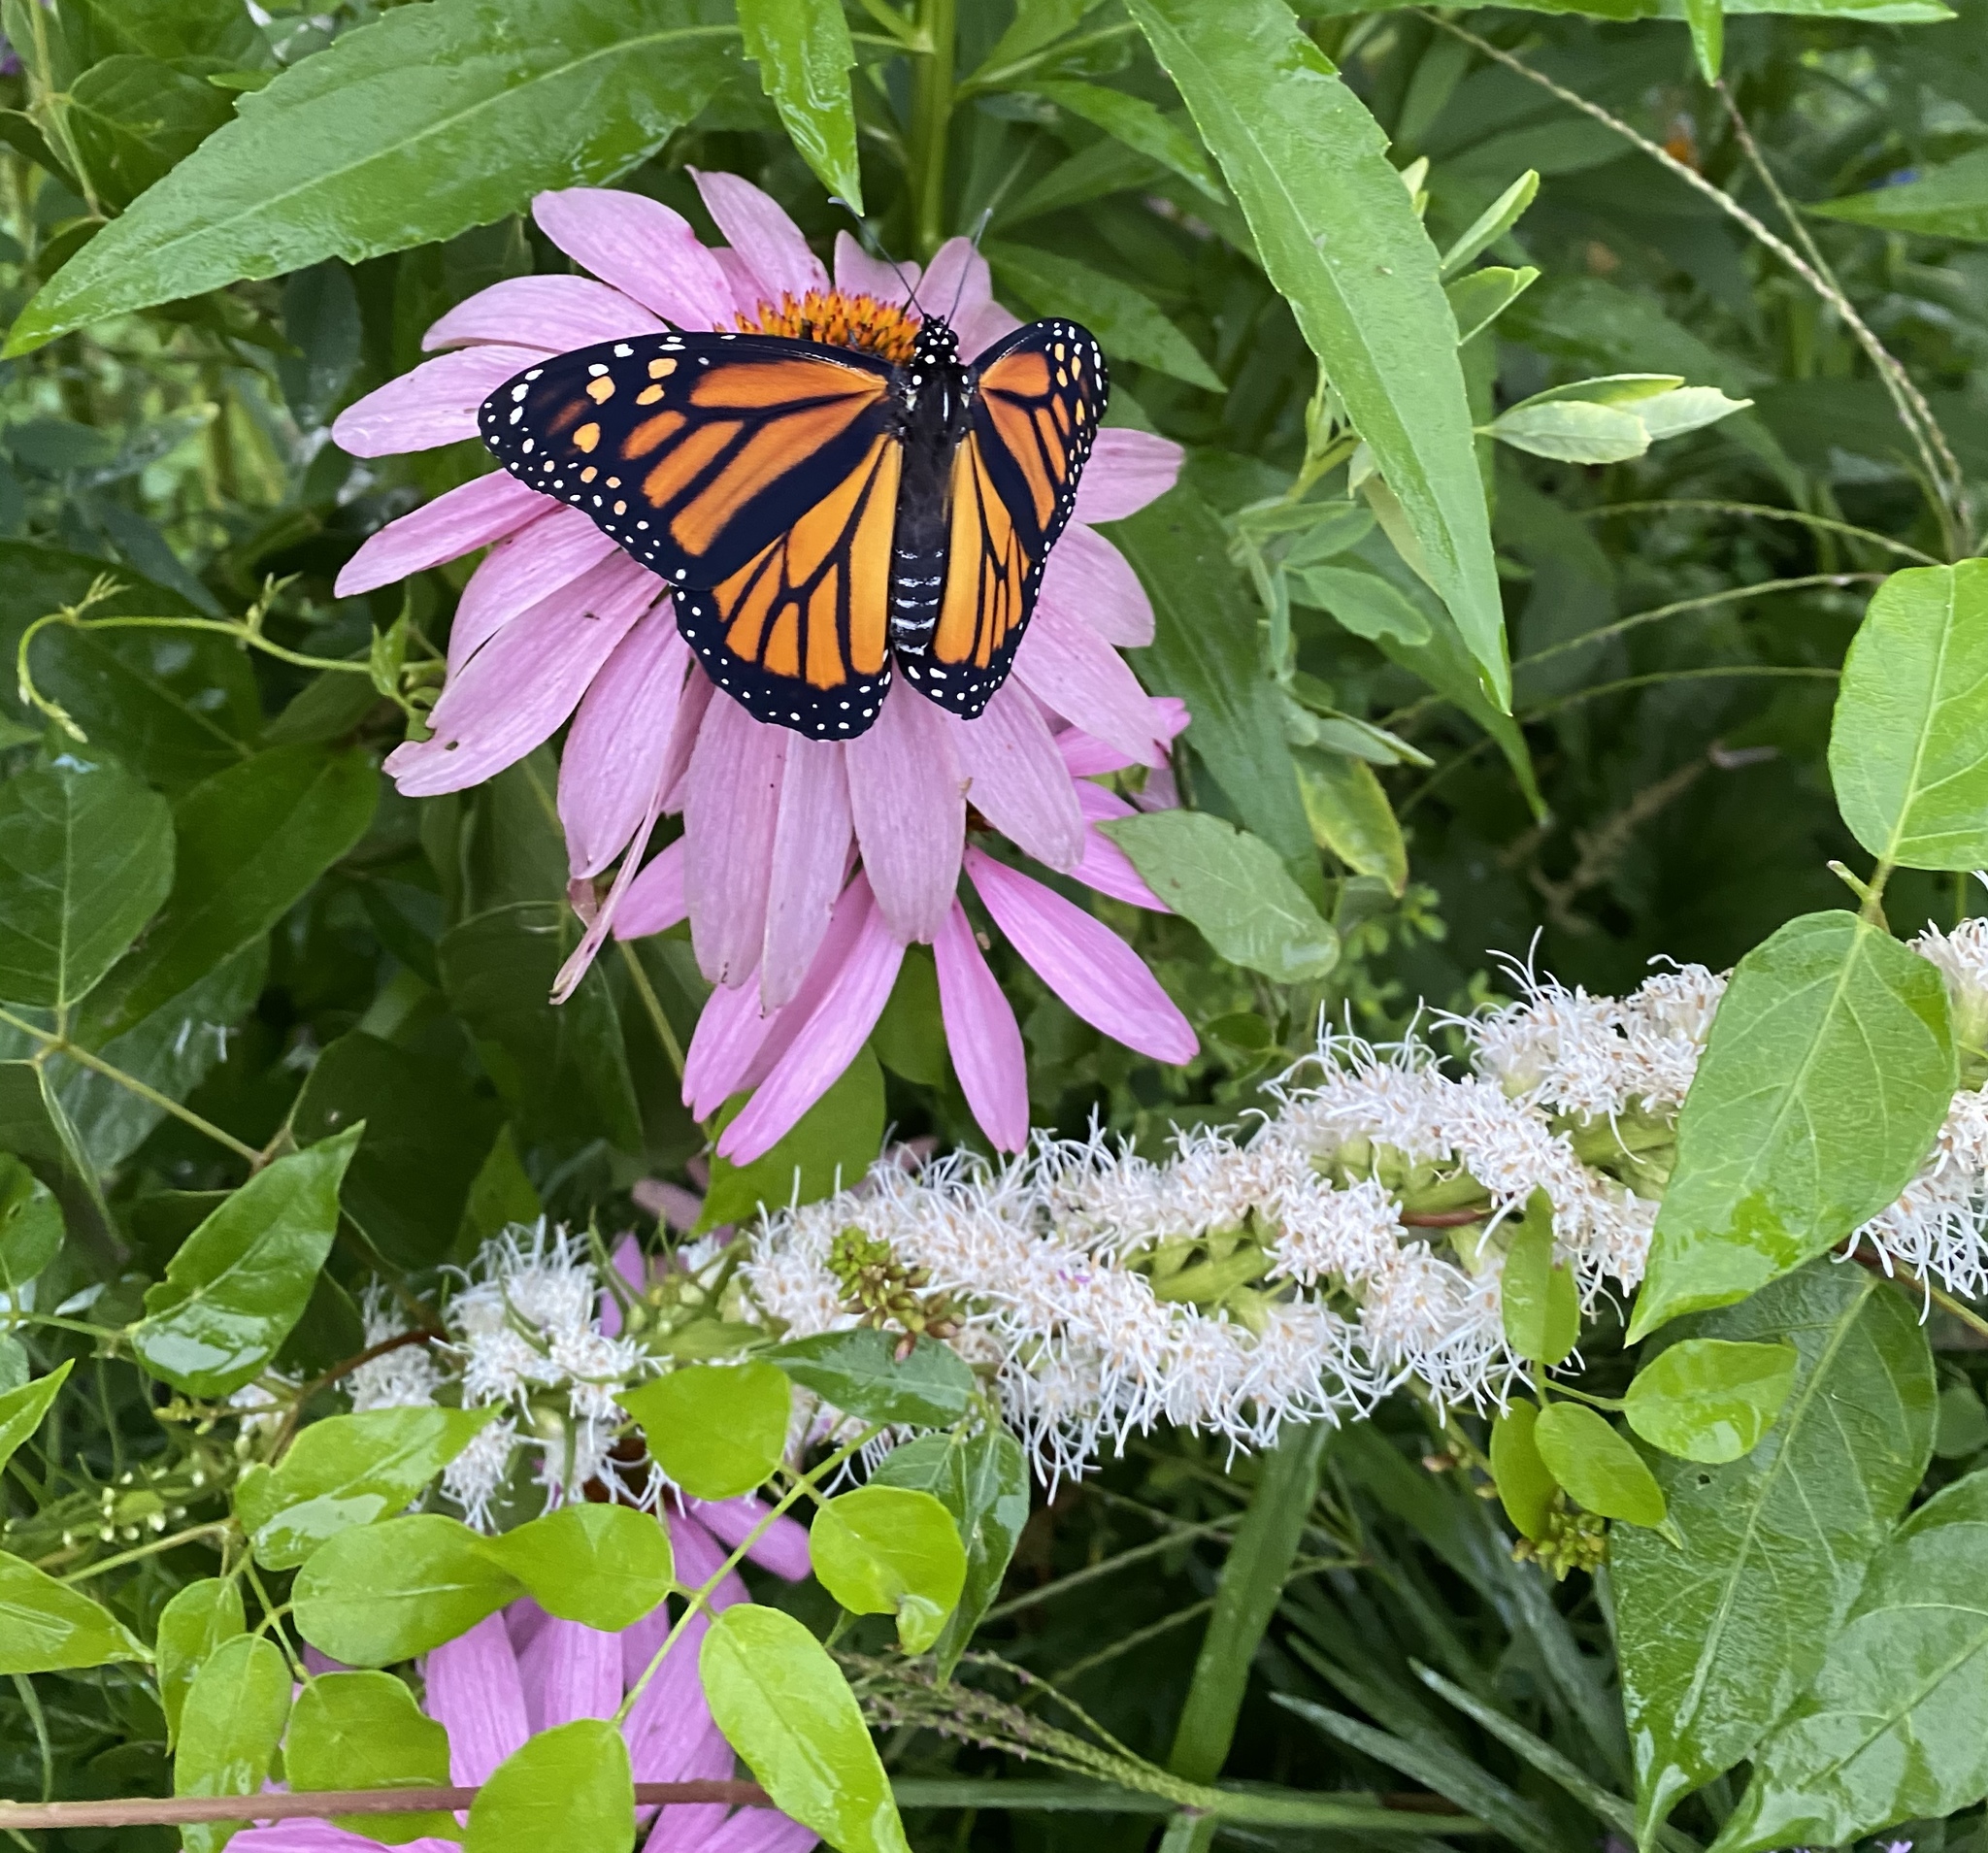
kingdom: Animalia
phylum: Arthropoda
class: Insecta
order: Lepidoptera
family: Nymphalidae
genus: Danaus
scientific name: Danaus plexippus
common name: Monarch
